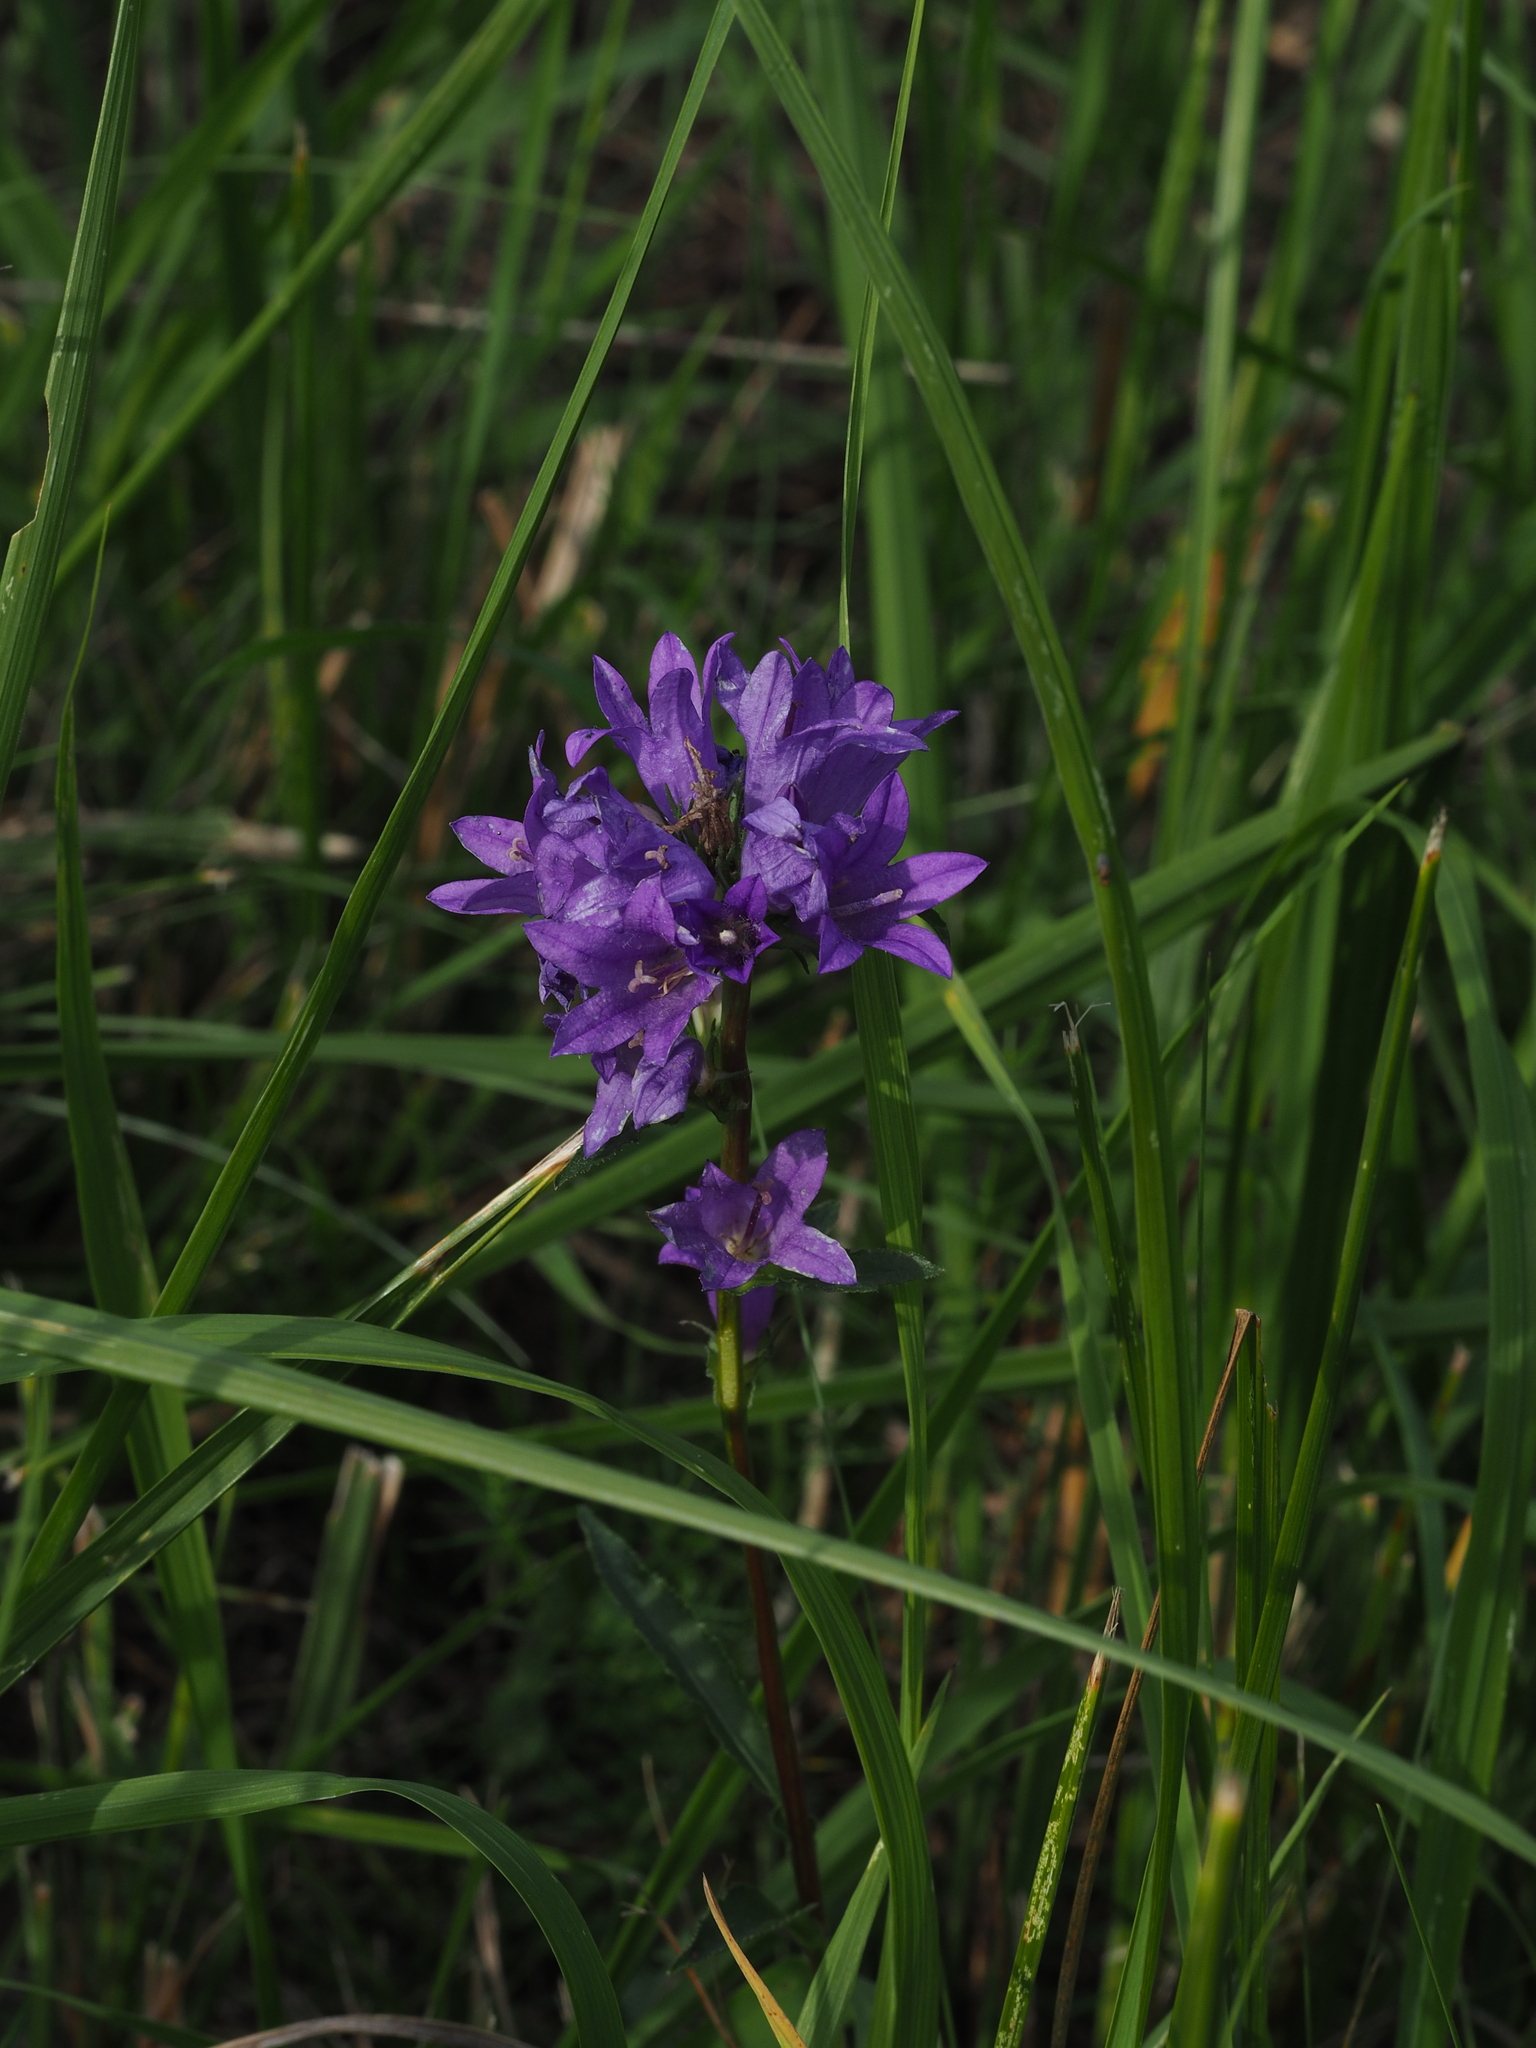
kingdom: Plantae
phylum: Tracheophyta
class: Magnoliopsida
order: Asterales
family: Campanulaceae
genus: Campanula
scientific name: Campanula glomerata
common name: Clustered bellflower
